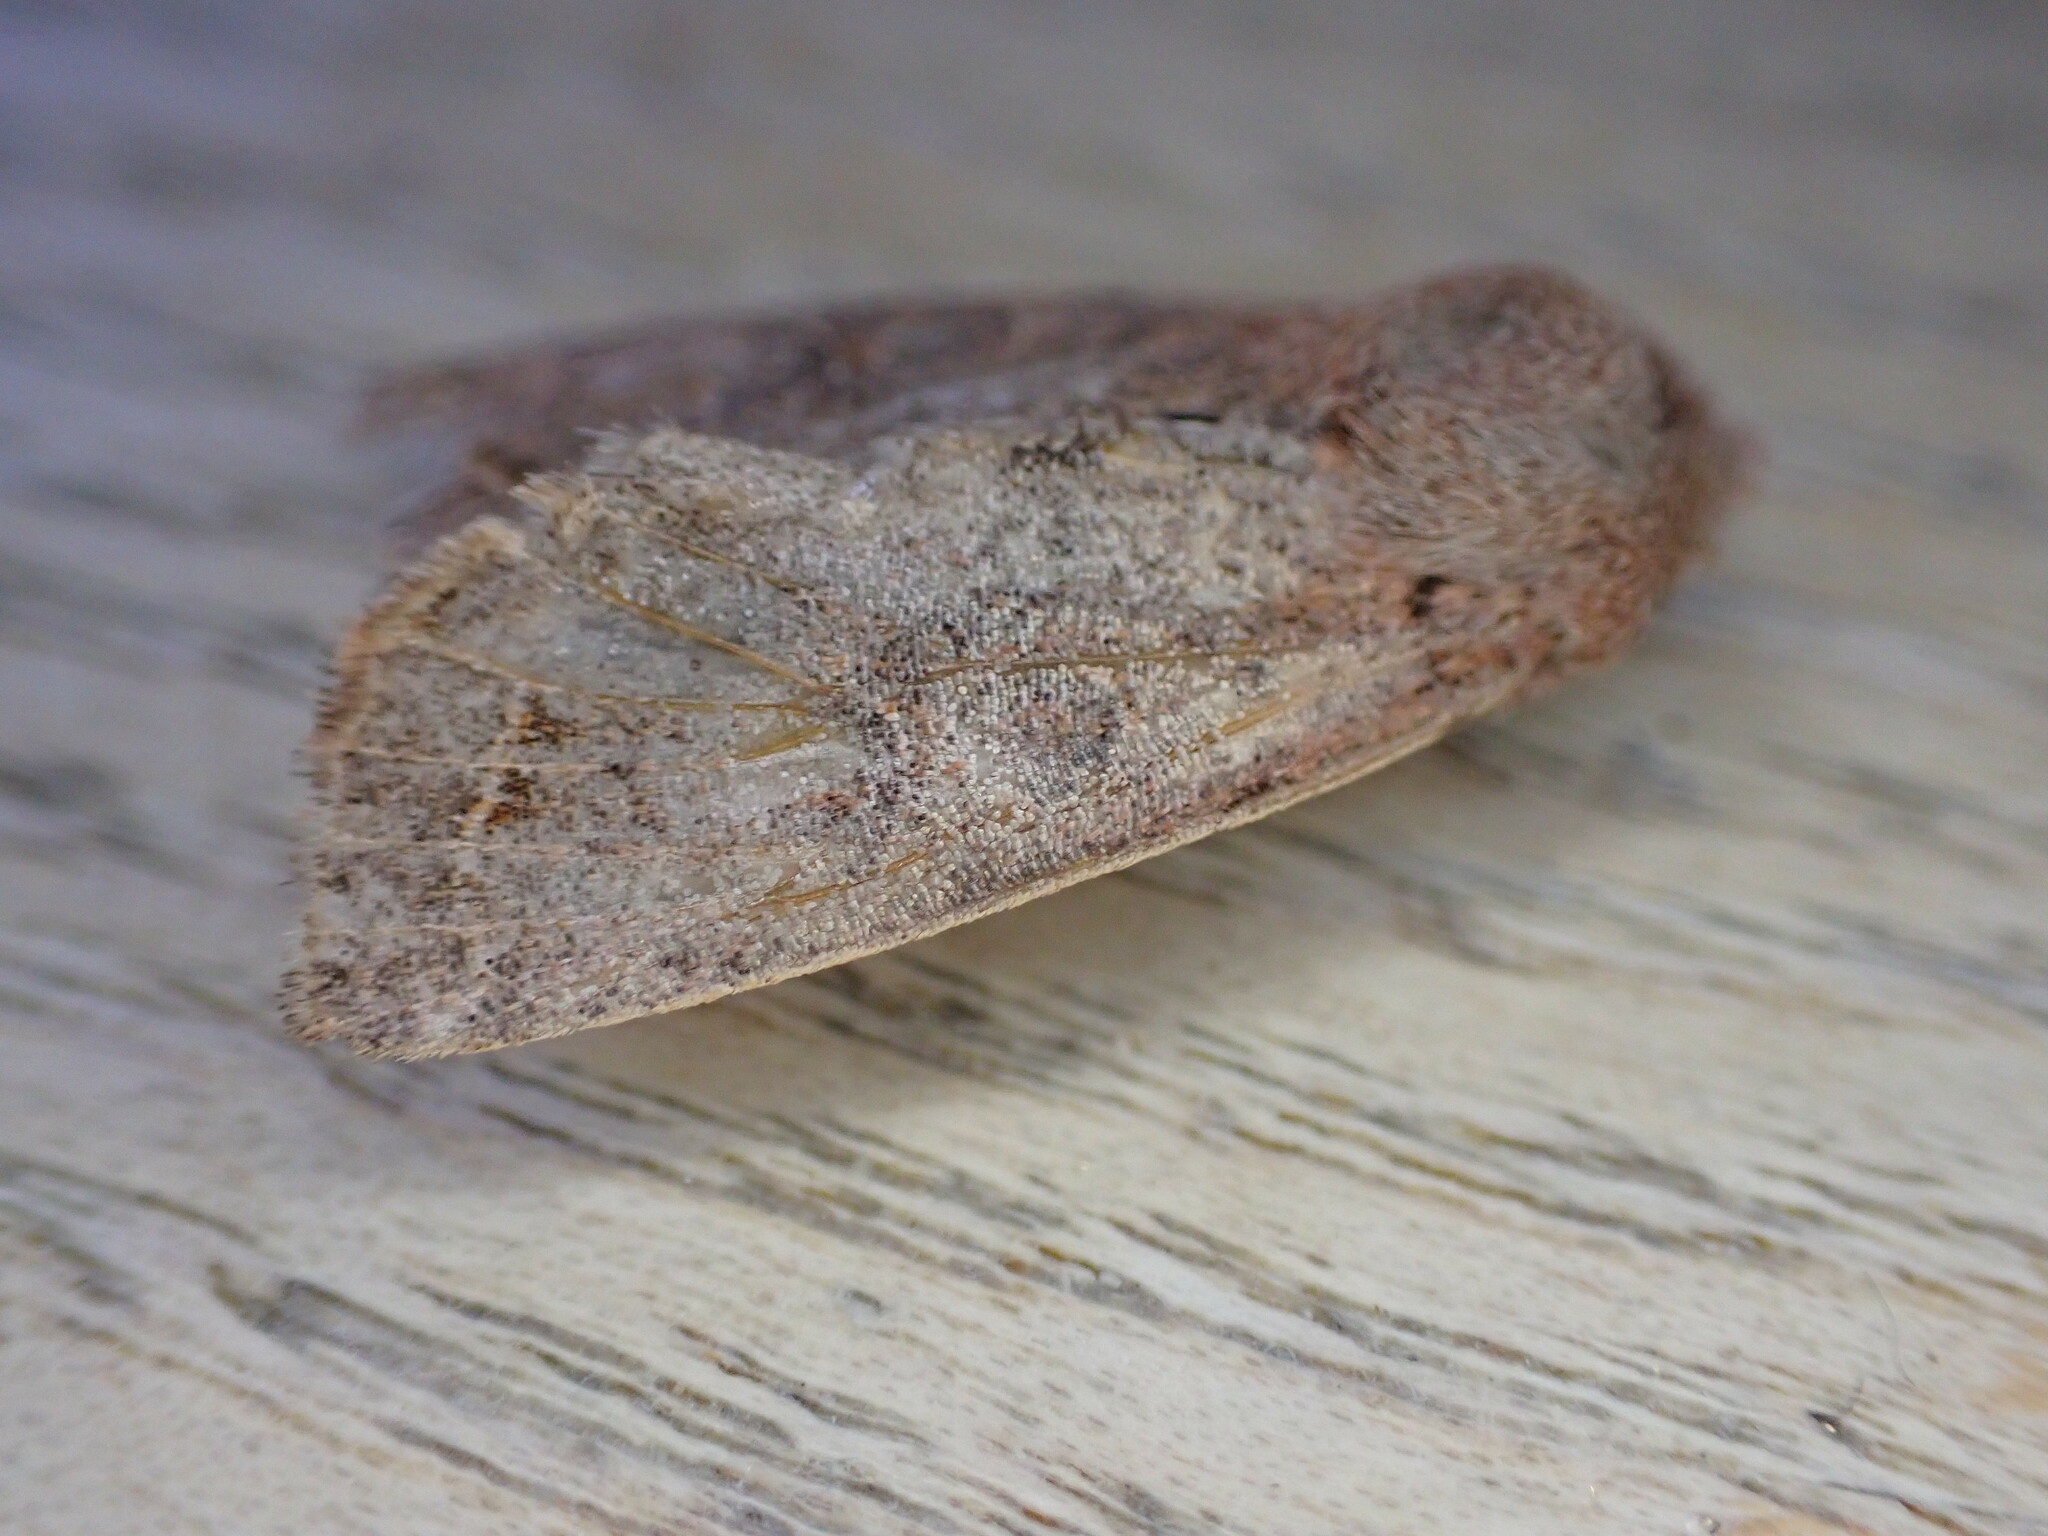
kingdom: Animalia
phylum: Arthropoda
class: Insecta
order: Lepidoptera
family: Noctuidae
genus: Orthosia
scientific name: Orthosia cerasi
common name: Common quaker
